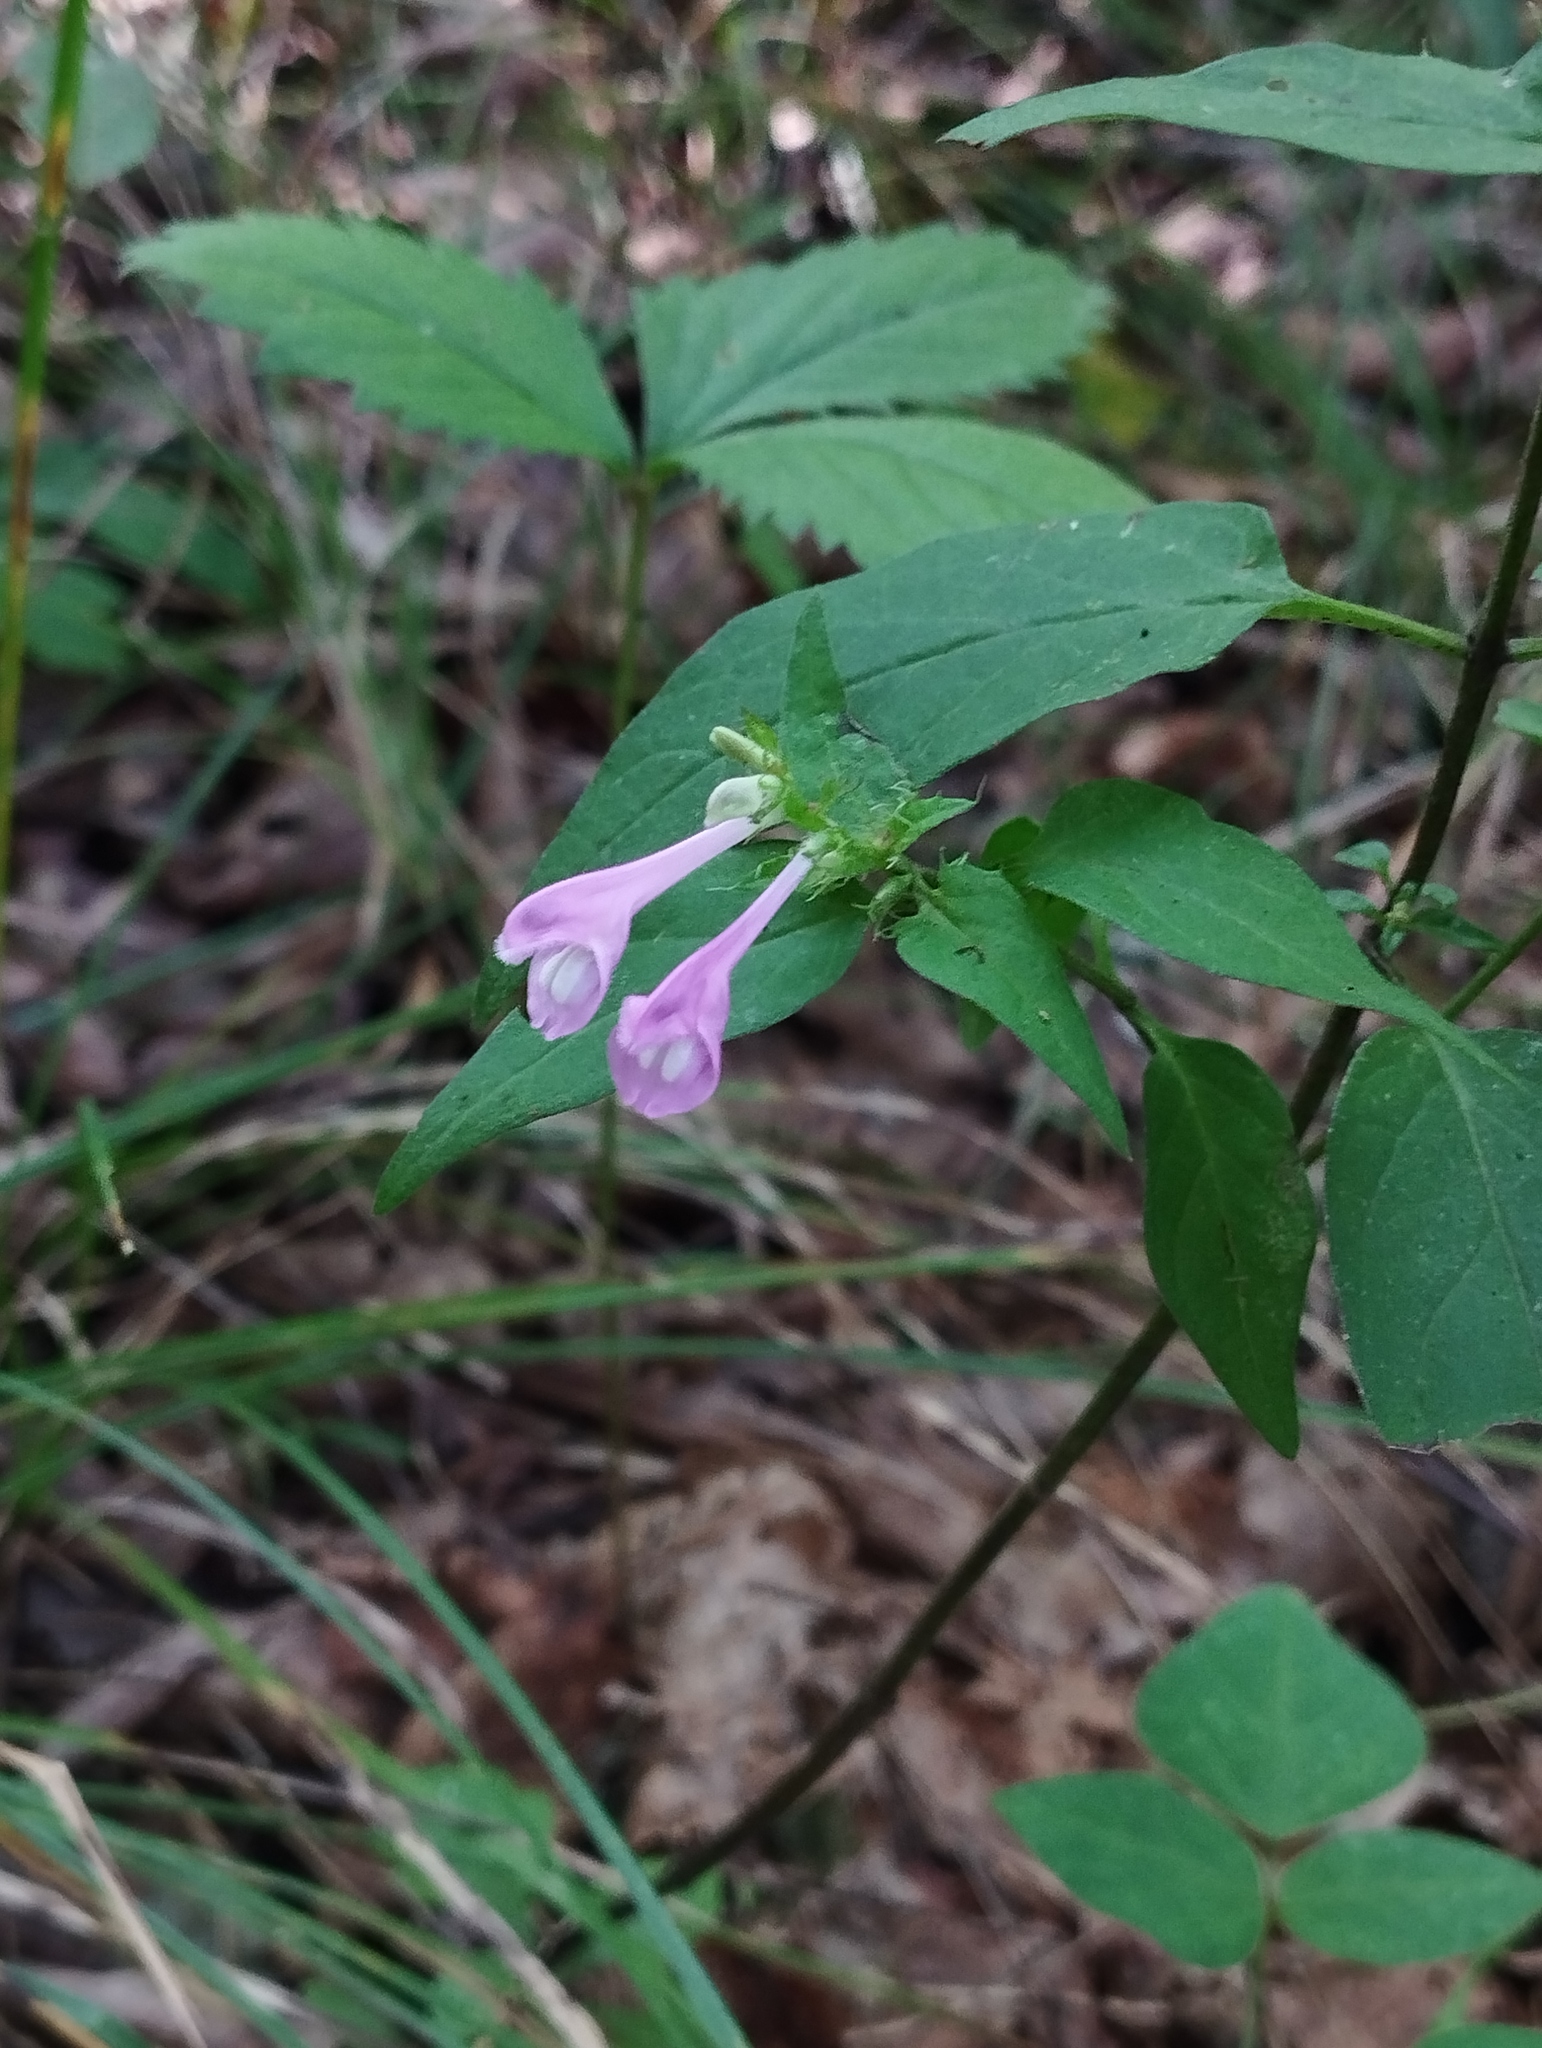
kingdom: Plantae
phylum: Tracheophyta
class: Magnoliopsida
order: Lamiales
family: Orobanchaceae
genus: Melampyrum
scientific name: Melampyrum roseum
